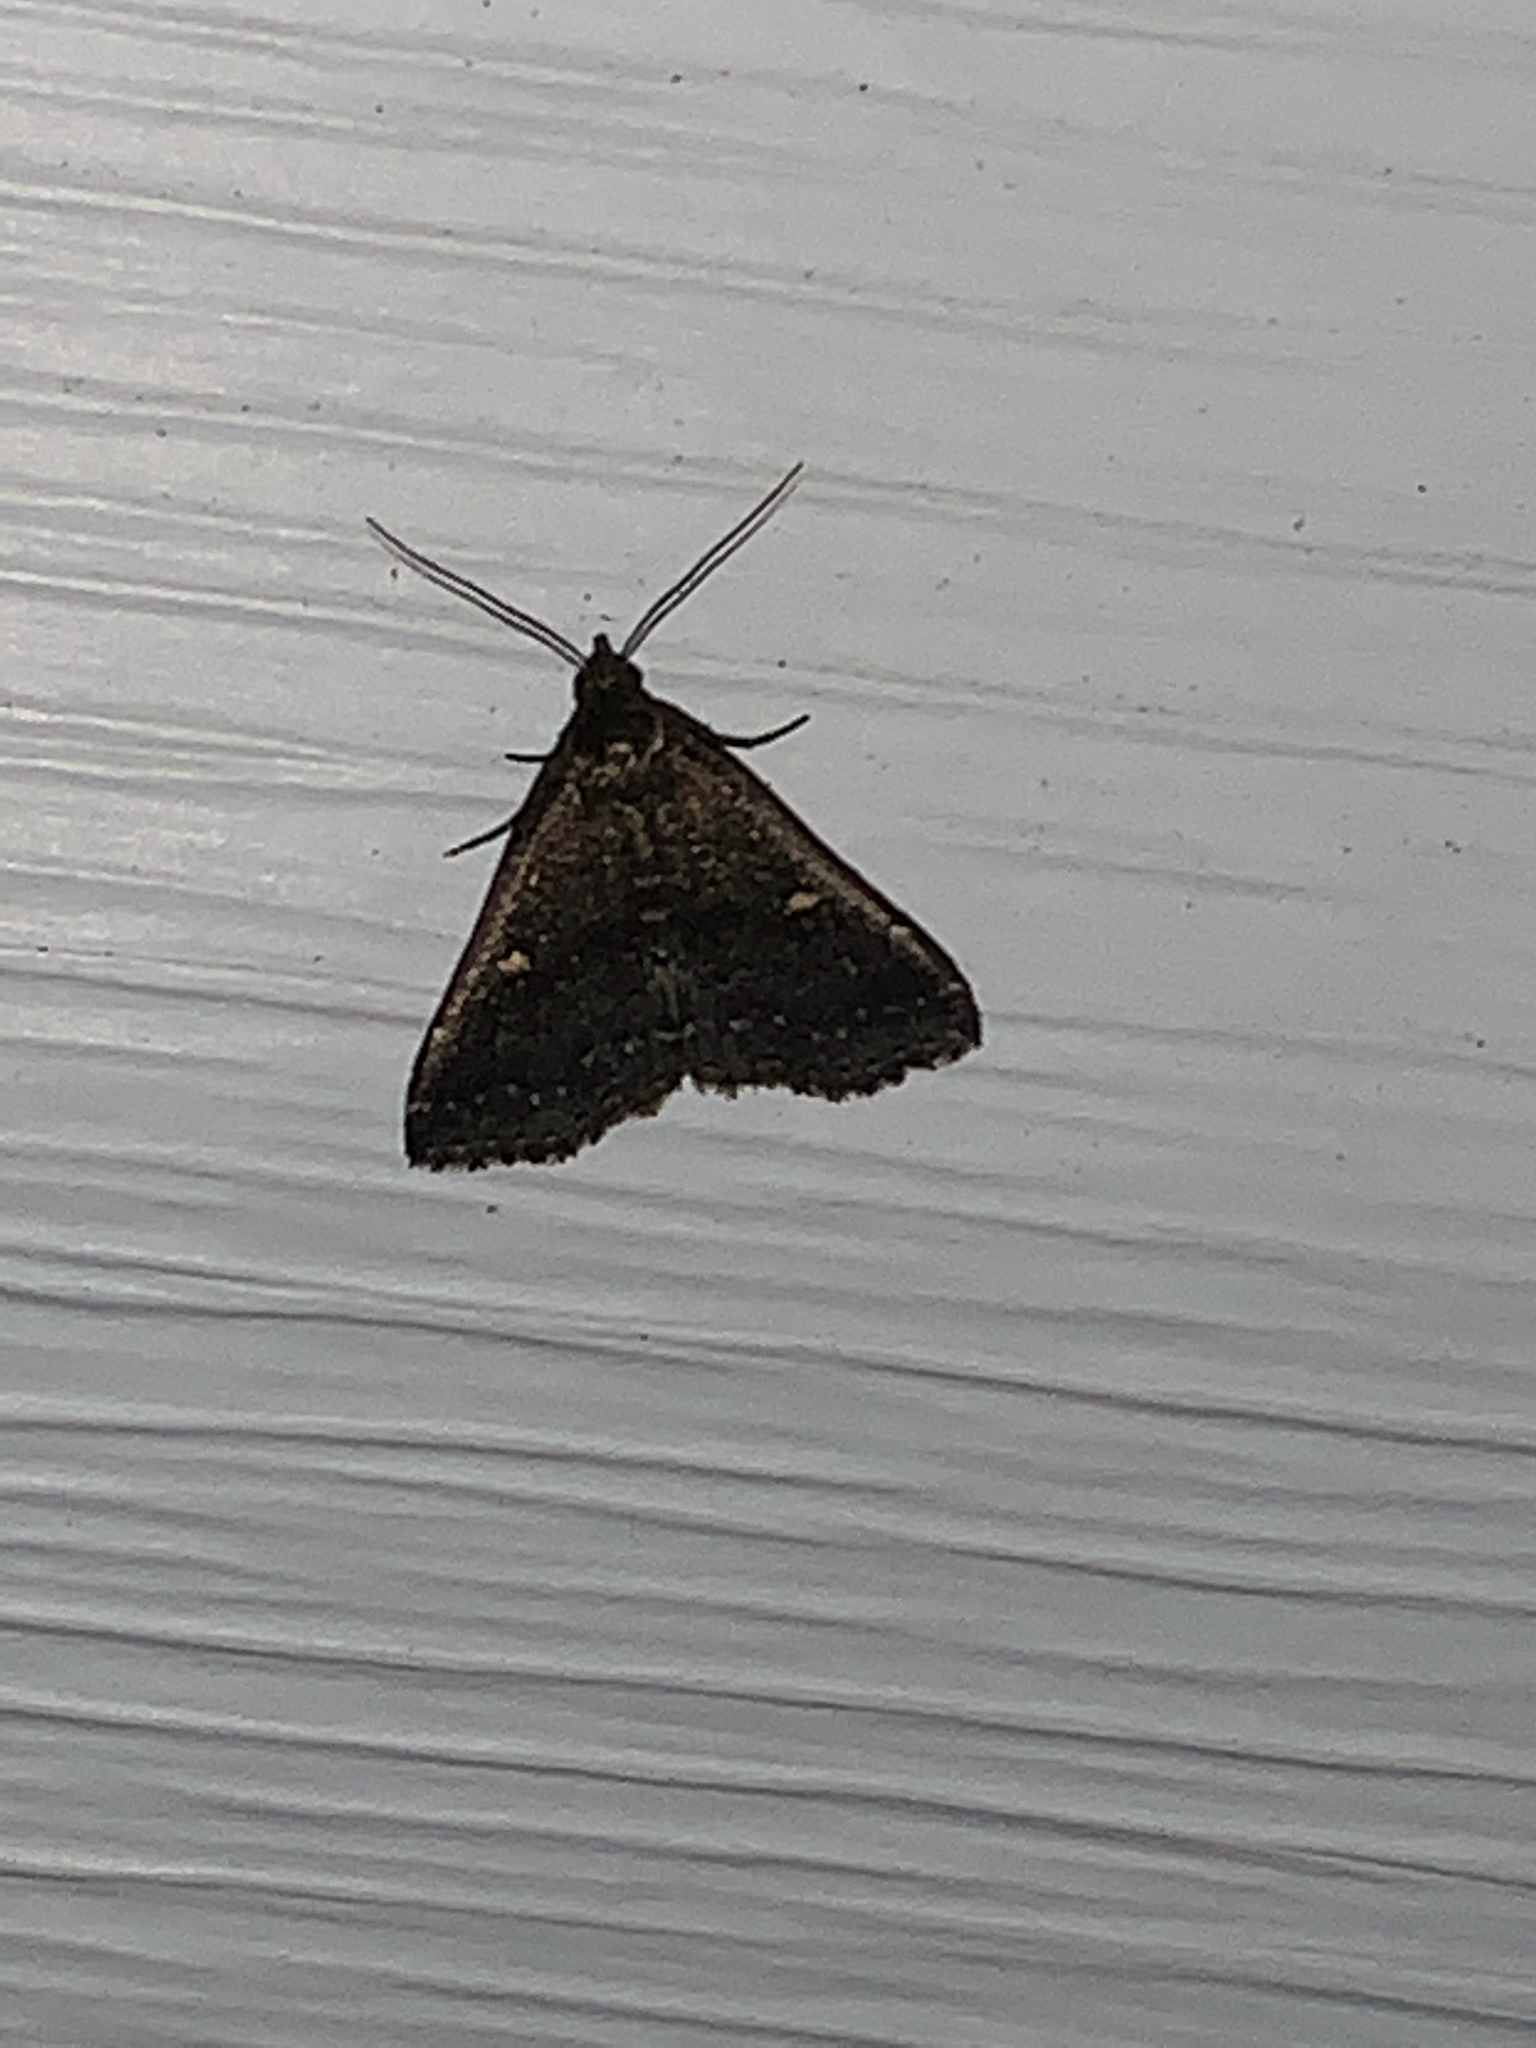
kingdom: Animalia
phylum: Arthropoda
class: Insecta
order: Lepidoptera
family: Erebidae
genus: Tetanolita
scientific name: Tetanolita mynesalis
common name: Smoky tetanolita moth
